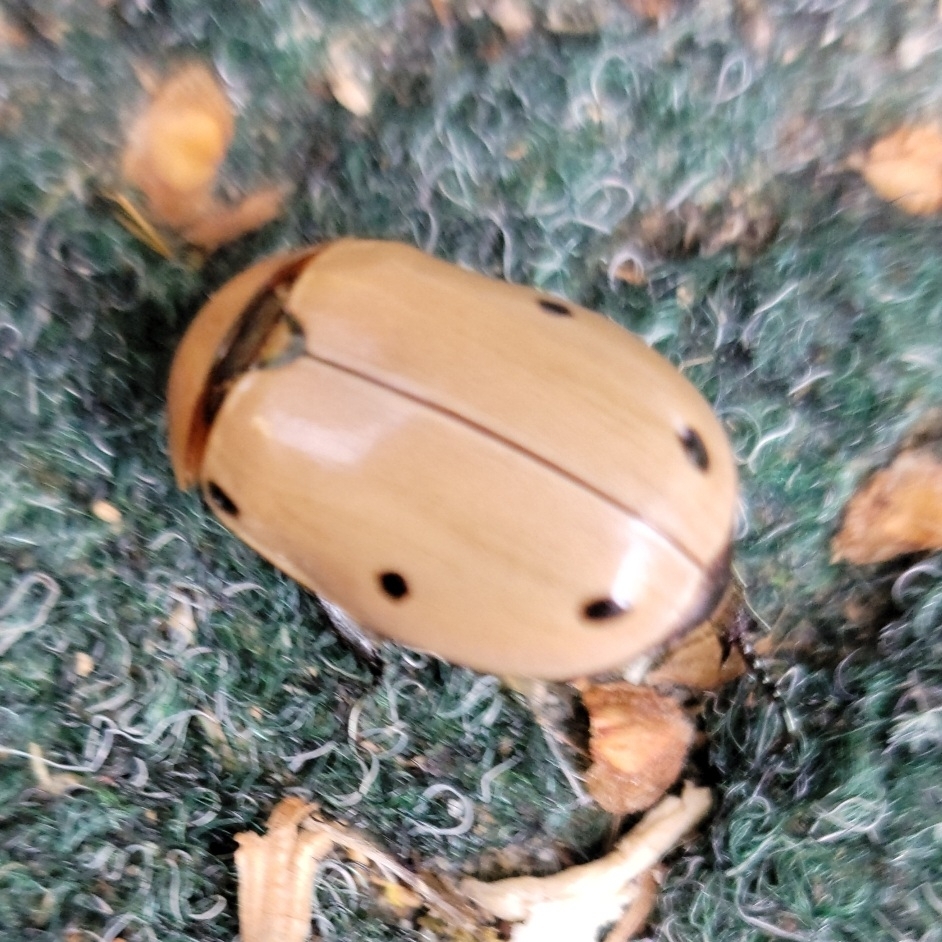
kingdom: Animalia
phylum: Arthropoda
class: Insecta
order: Coleoptera
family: Scarabaeidae
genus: Pelidnota
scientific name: Pelidnota punctata
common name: Grapevine beetle
